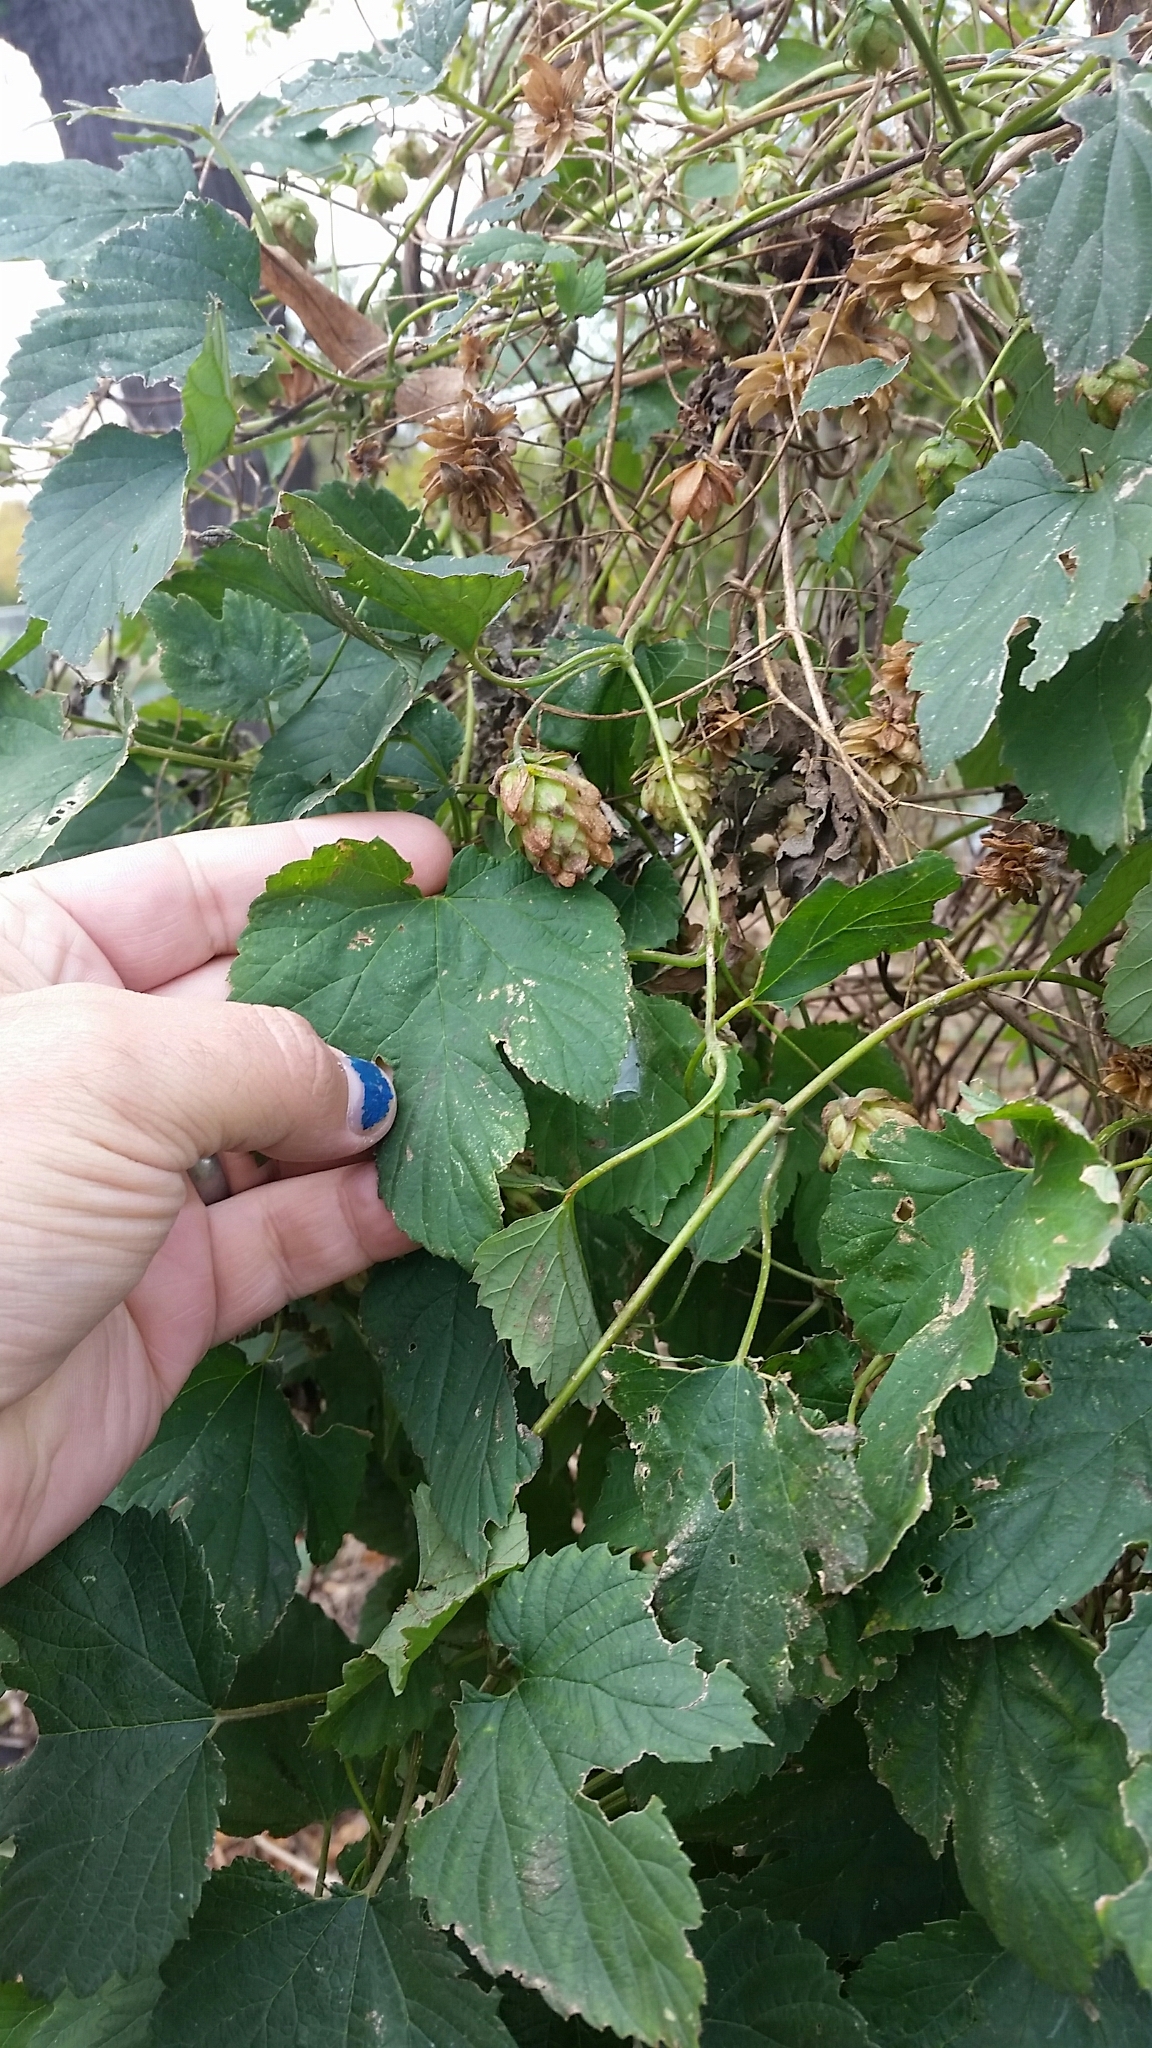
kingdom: Plantae
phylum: Tracheophyta
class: Magnoliopsida
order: Rosales
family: Cannabaceae
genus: Humulus
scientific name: Humulus lupulus
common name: Hop
